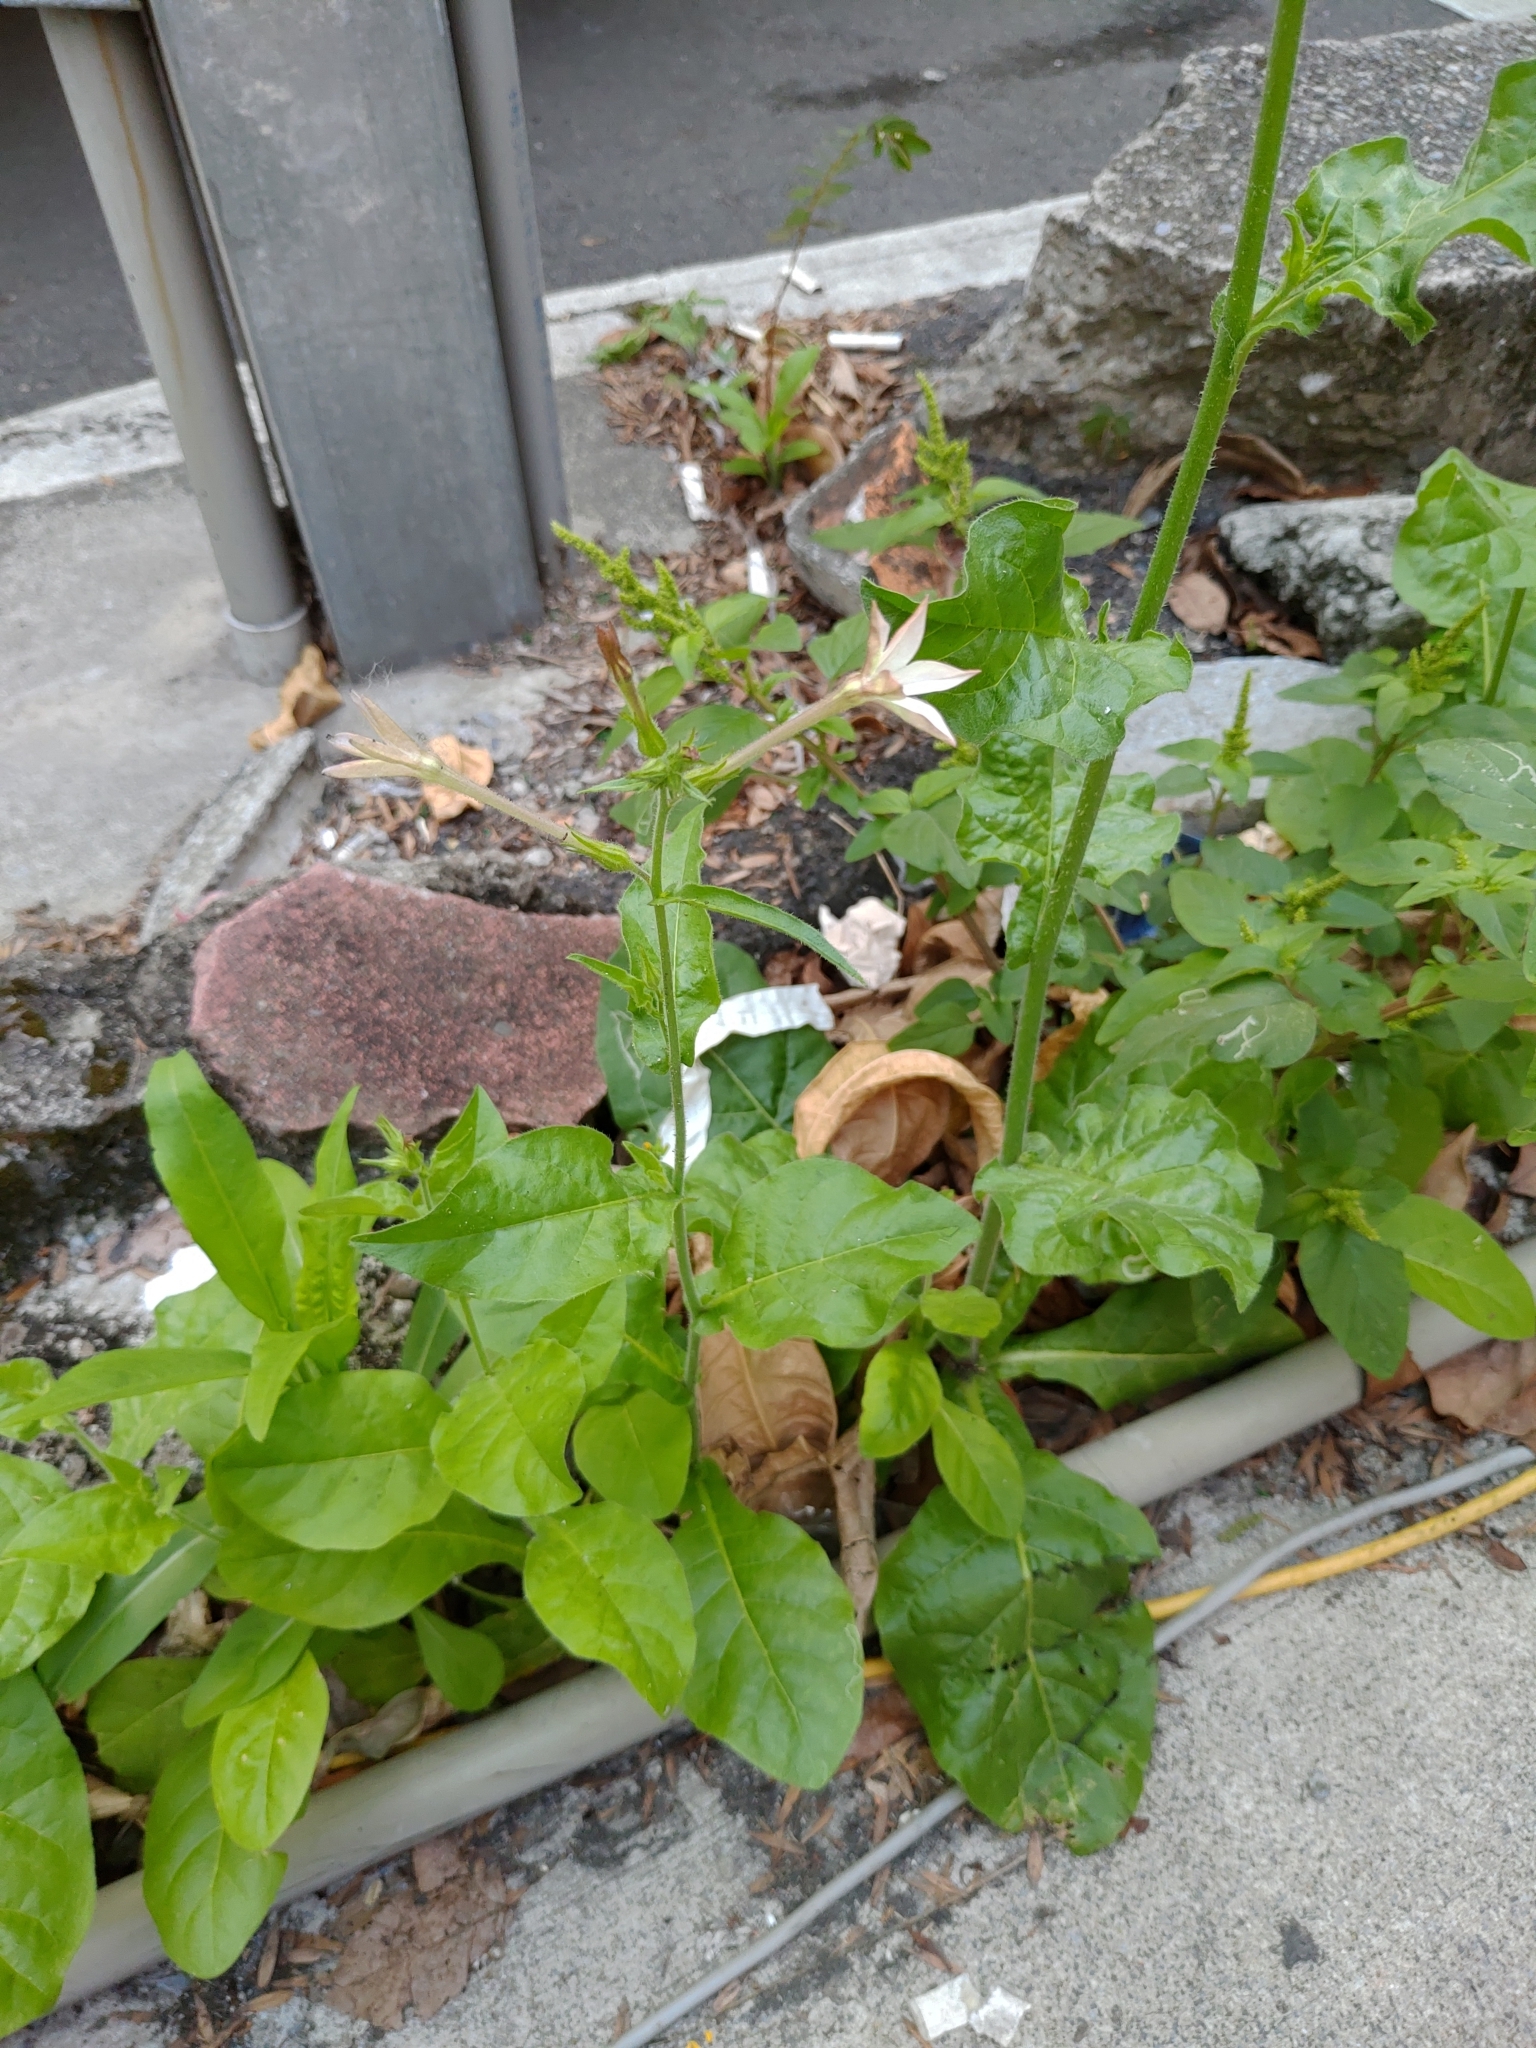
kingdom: Plantae
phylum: Tracheophyta
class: Magnoliopsida
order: Solanales
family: Solanaceae
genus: Nicotiana
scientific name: Nicotiana plumbaginifolia
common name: Tex-mex tobacco
